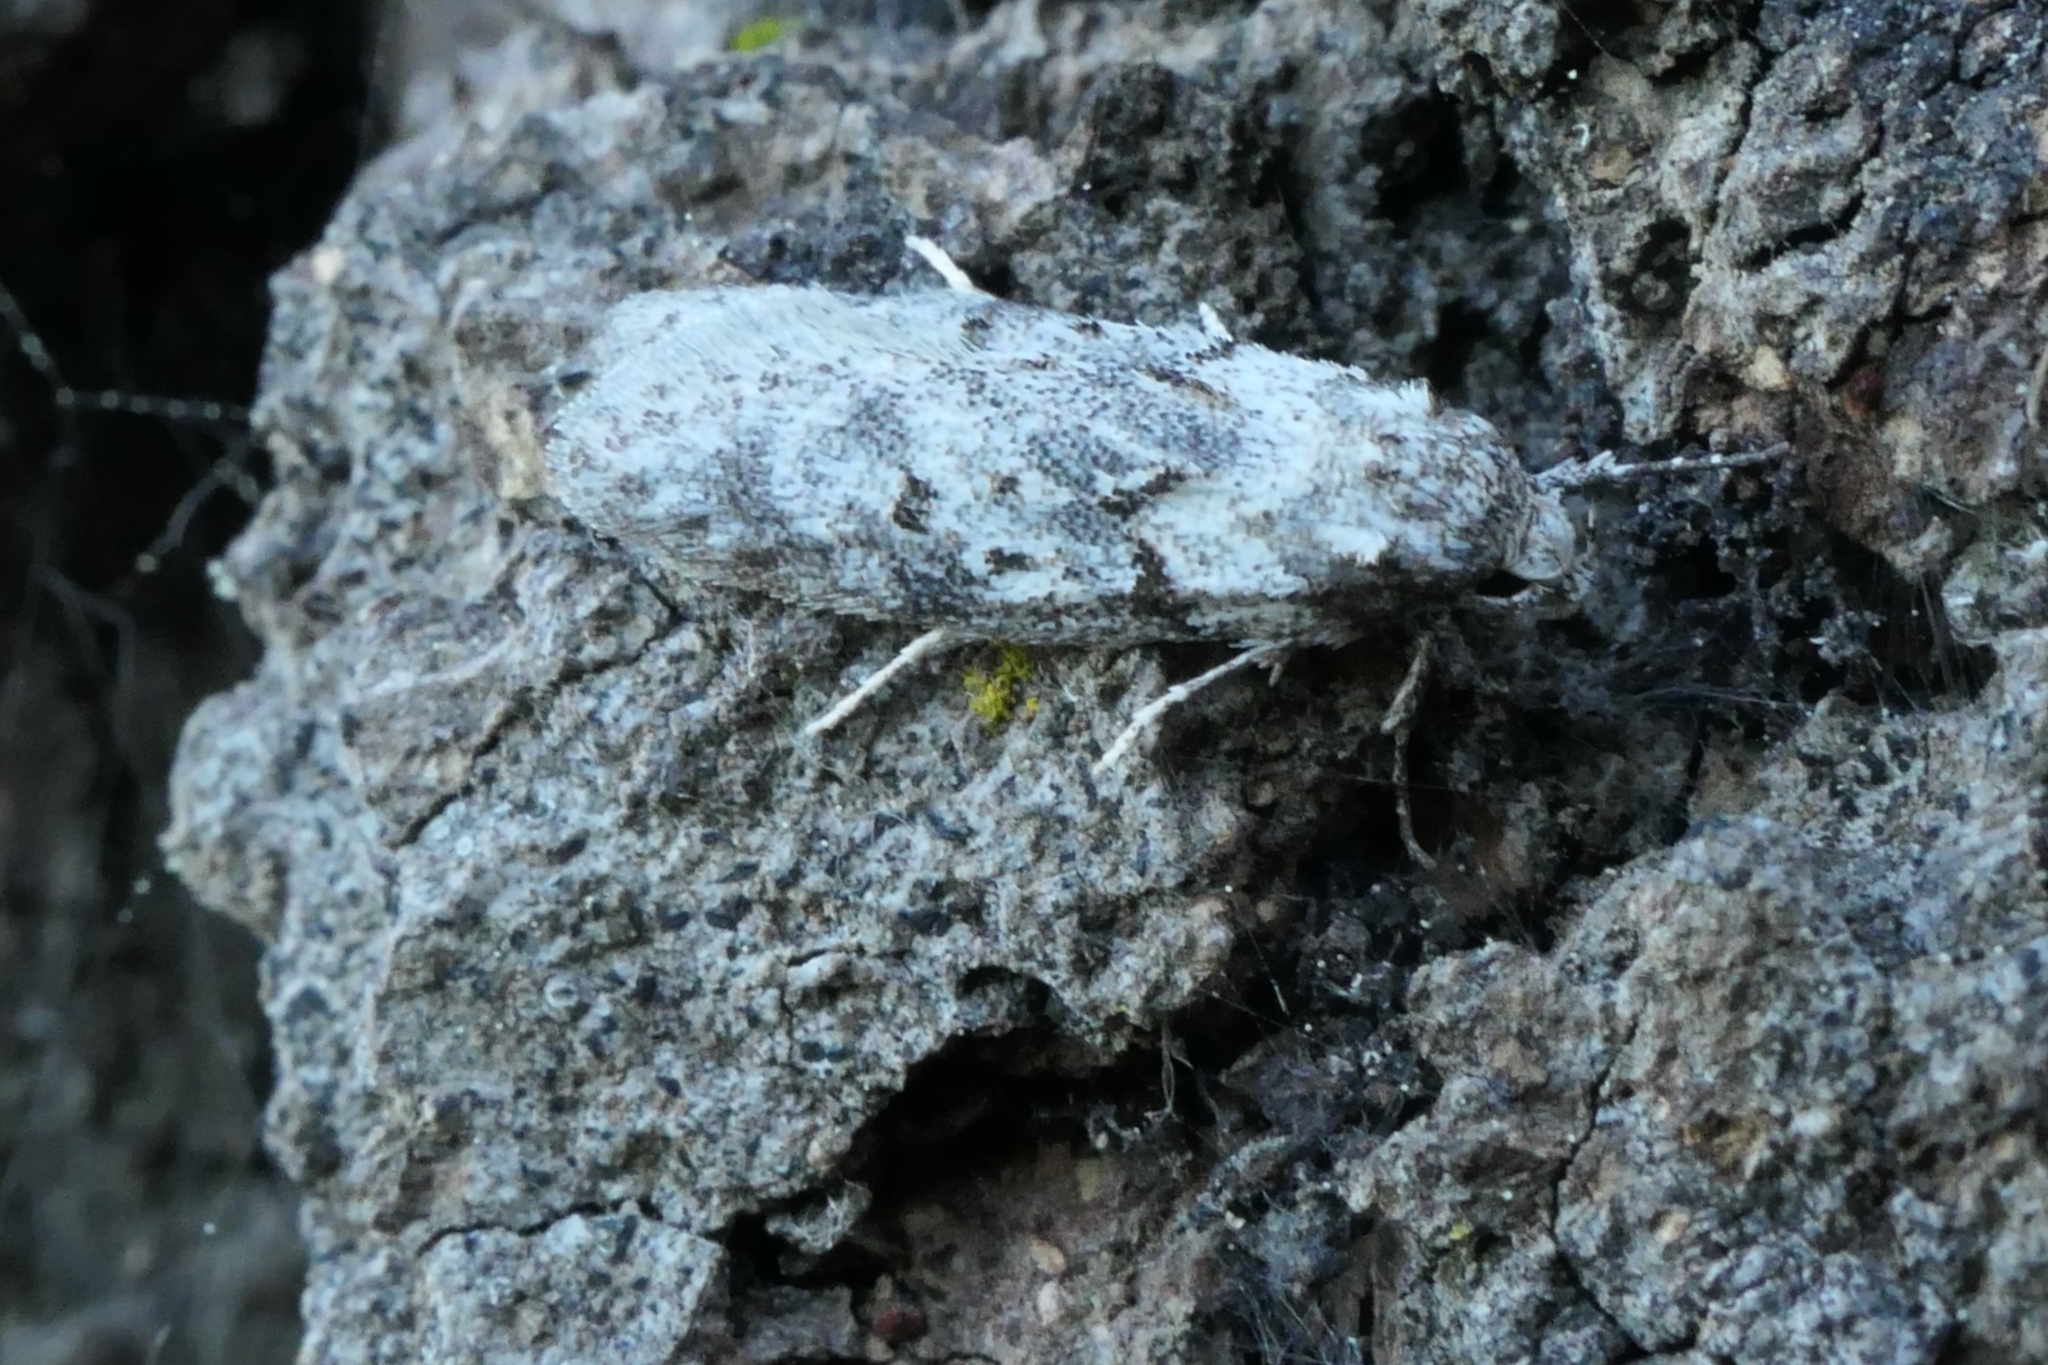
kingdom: Animalia
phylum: Arthropoda
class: Insecta
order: Lepidoptera
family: Oecophoridae
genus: Izatha
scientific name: Izatha convulsella
